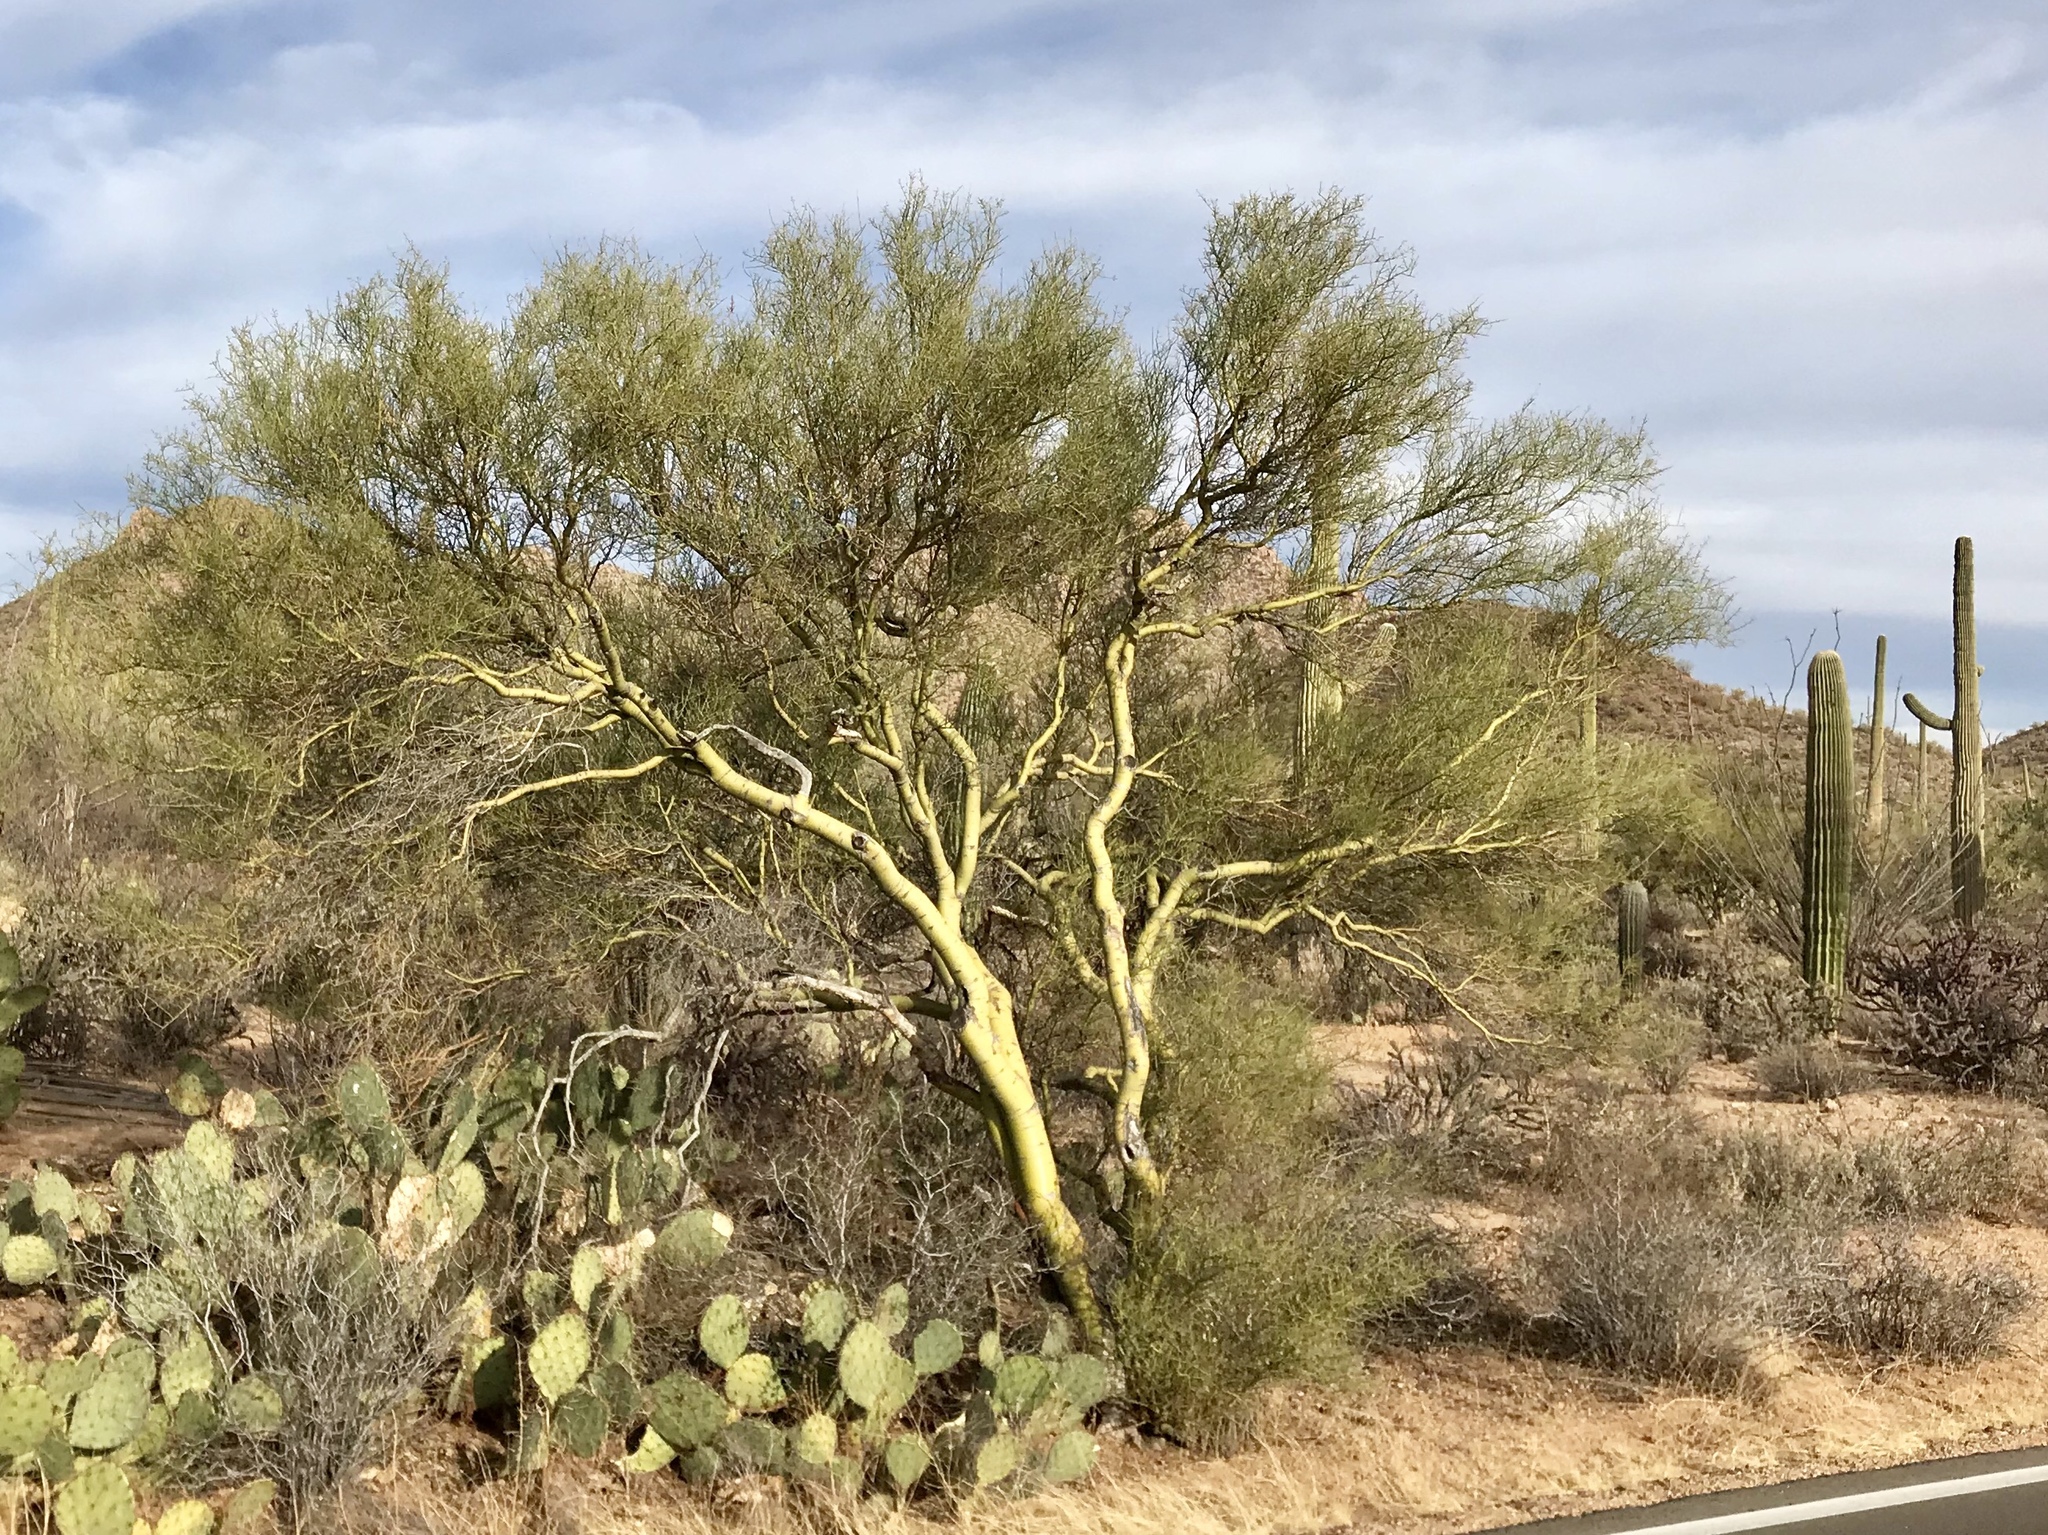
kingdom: Plantae
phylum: Tracheophyta
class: Magnoliopsida
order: Fabales
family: Fabaceae
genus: Parkinsonia
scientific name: Parkinsonia microphylla
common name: Yellow paloverde
